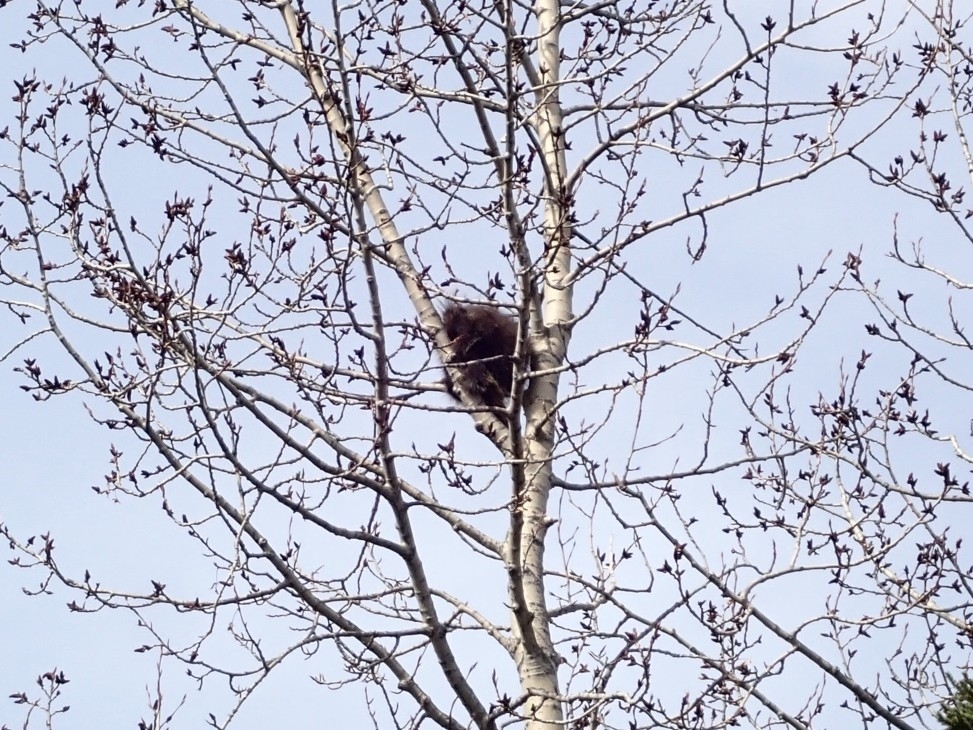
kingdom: Animalia
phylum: Chordata
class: Mammalia
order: Rodentia
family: Erethizontidae
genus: Erethizon
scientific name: Erethizon dorsatus
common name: North american porcupine
